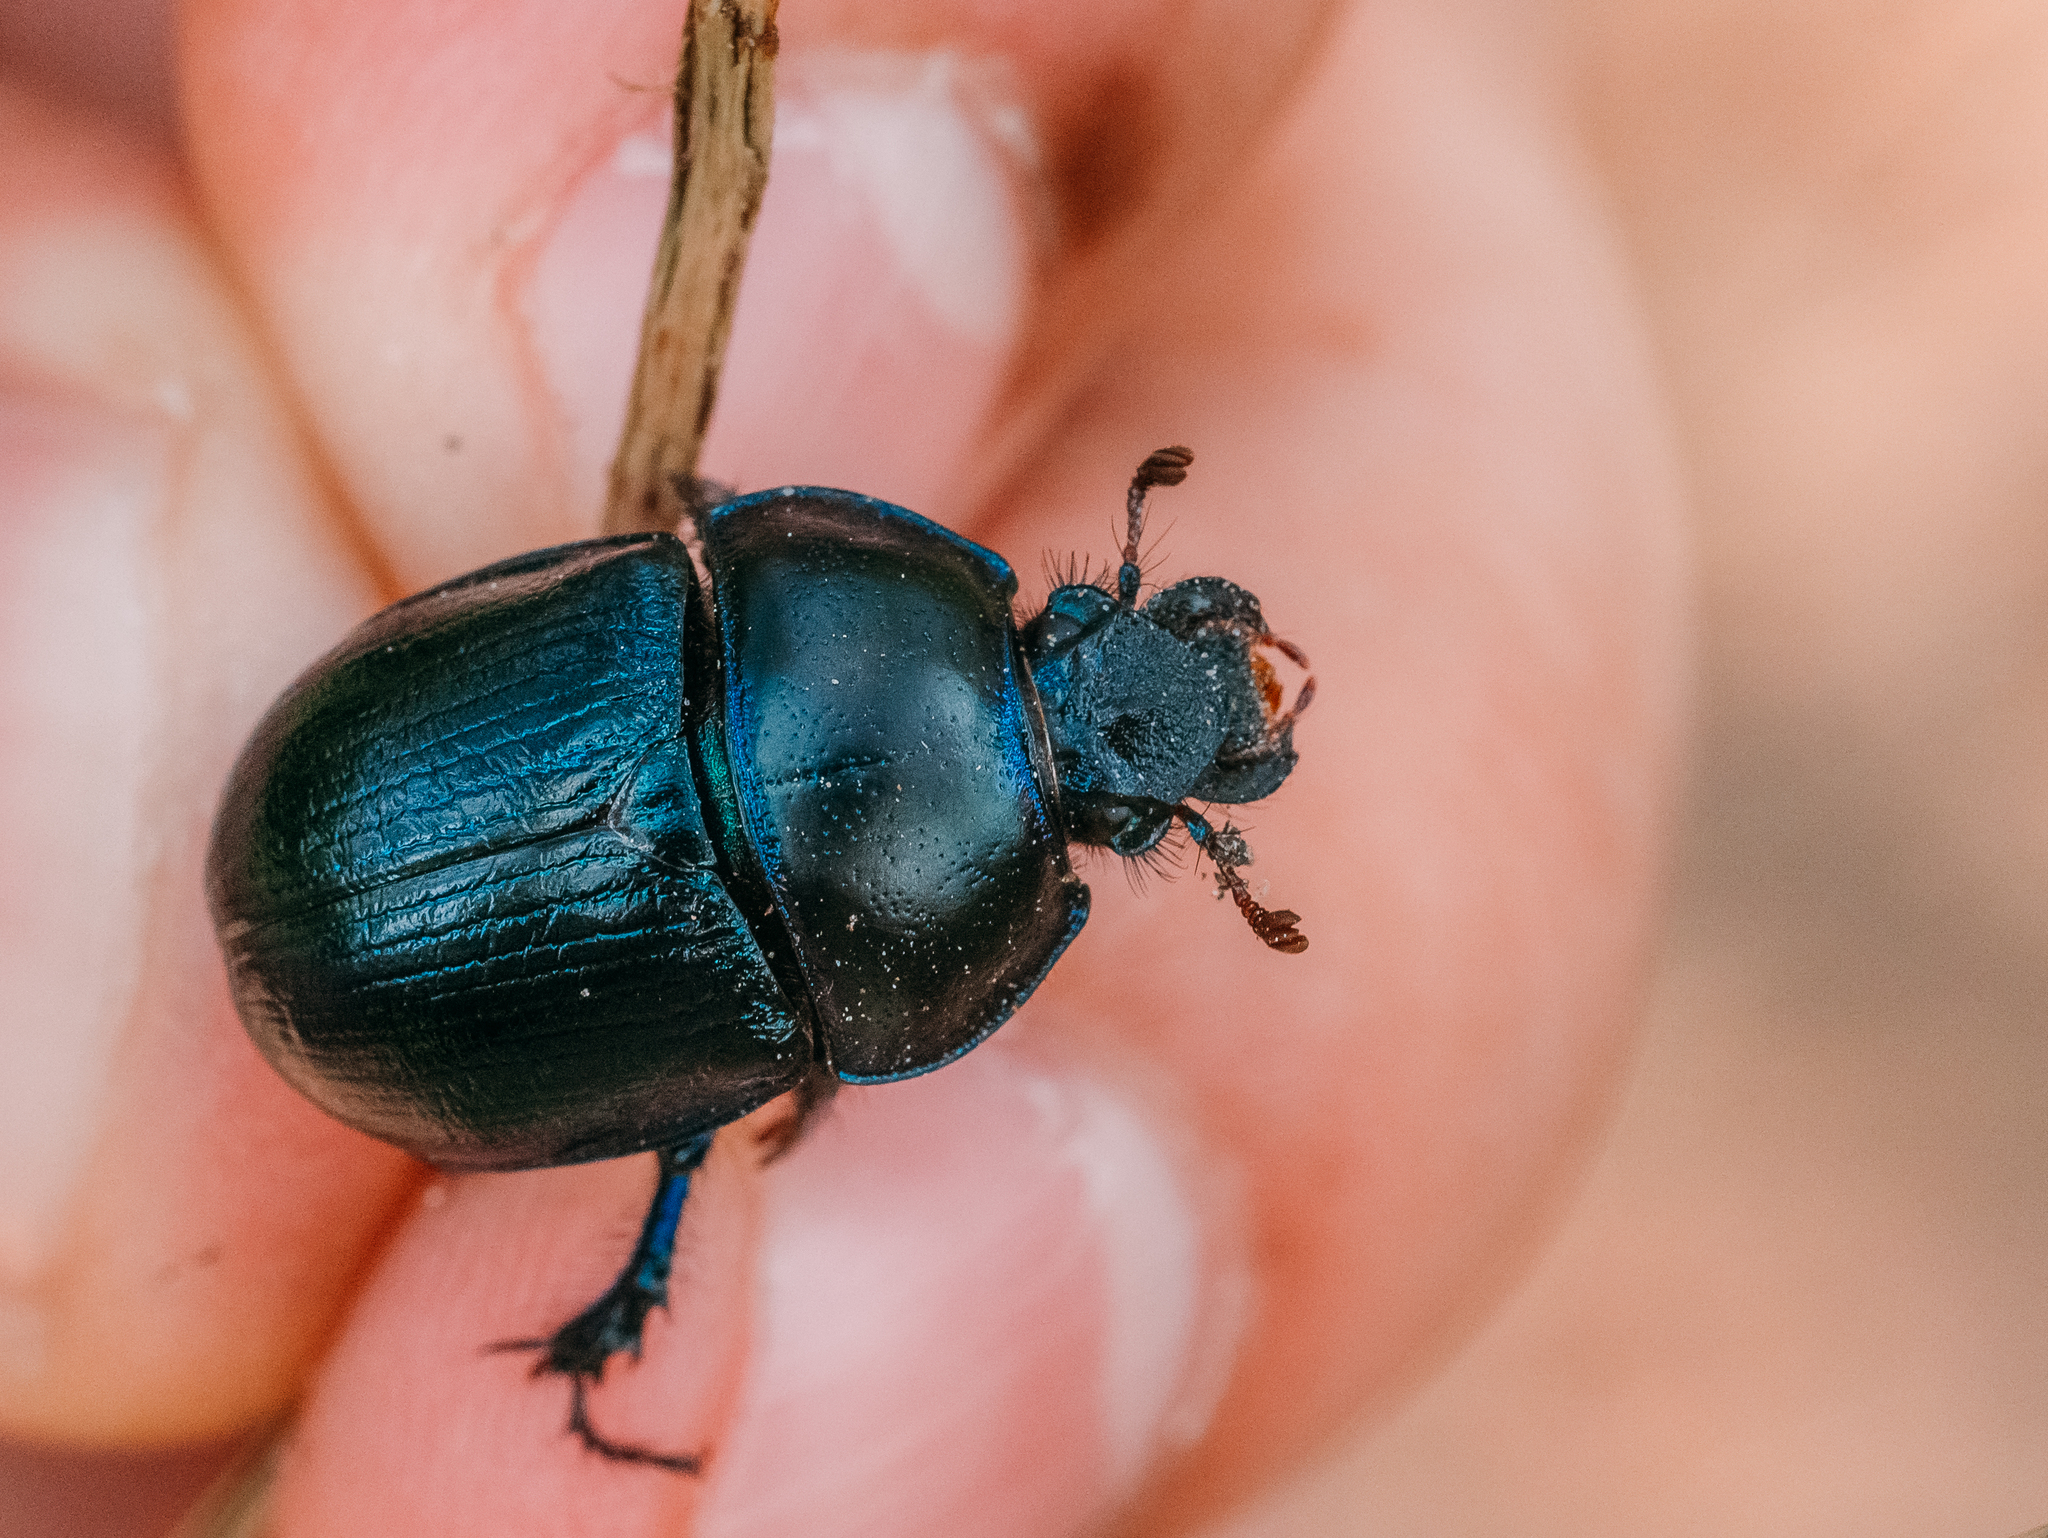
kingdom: Animalia
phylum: Arthropoda
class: Insecta
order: Coleoptera
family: Geotrupidae
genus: Anoplotrupes
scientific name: Anoplotrupes stercorosus
